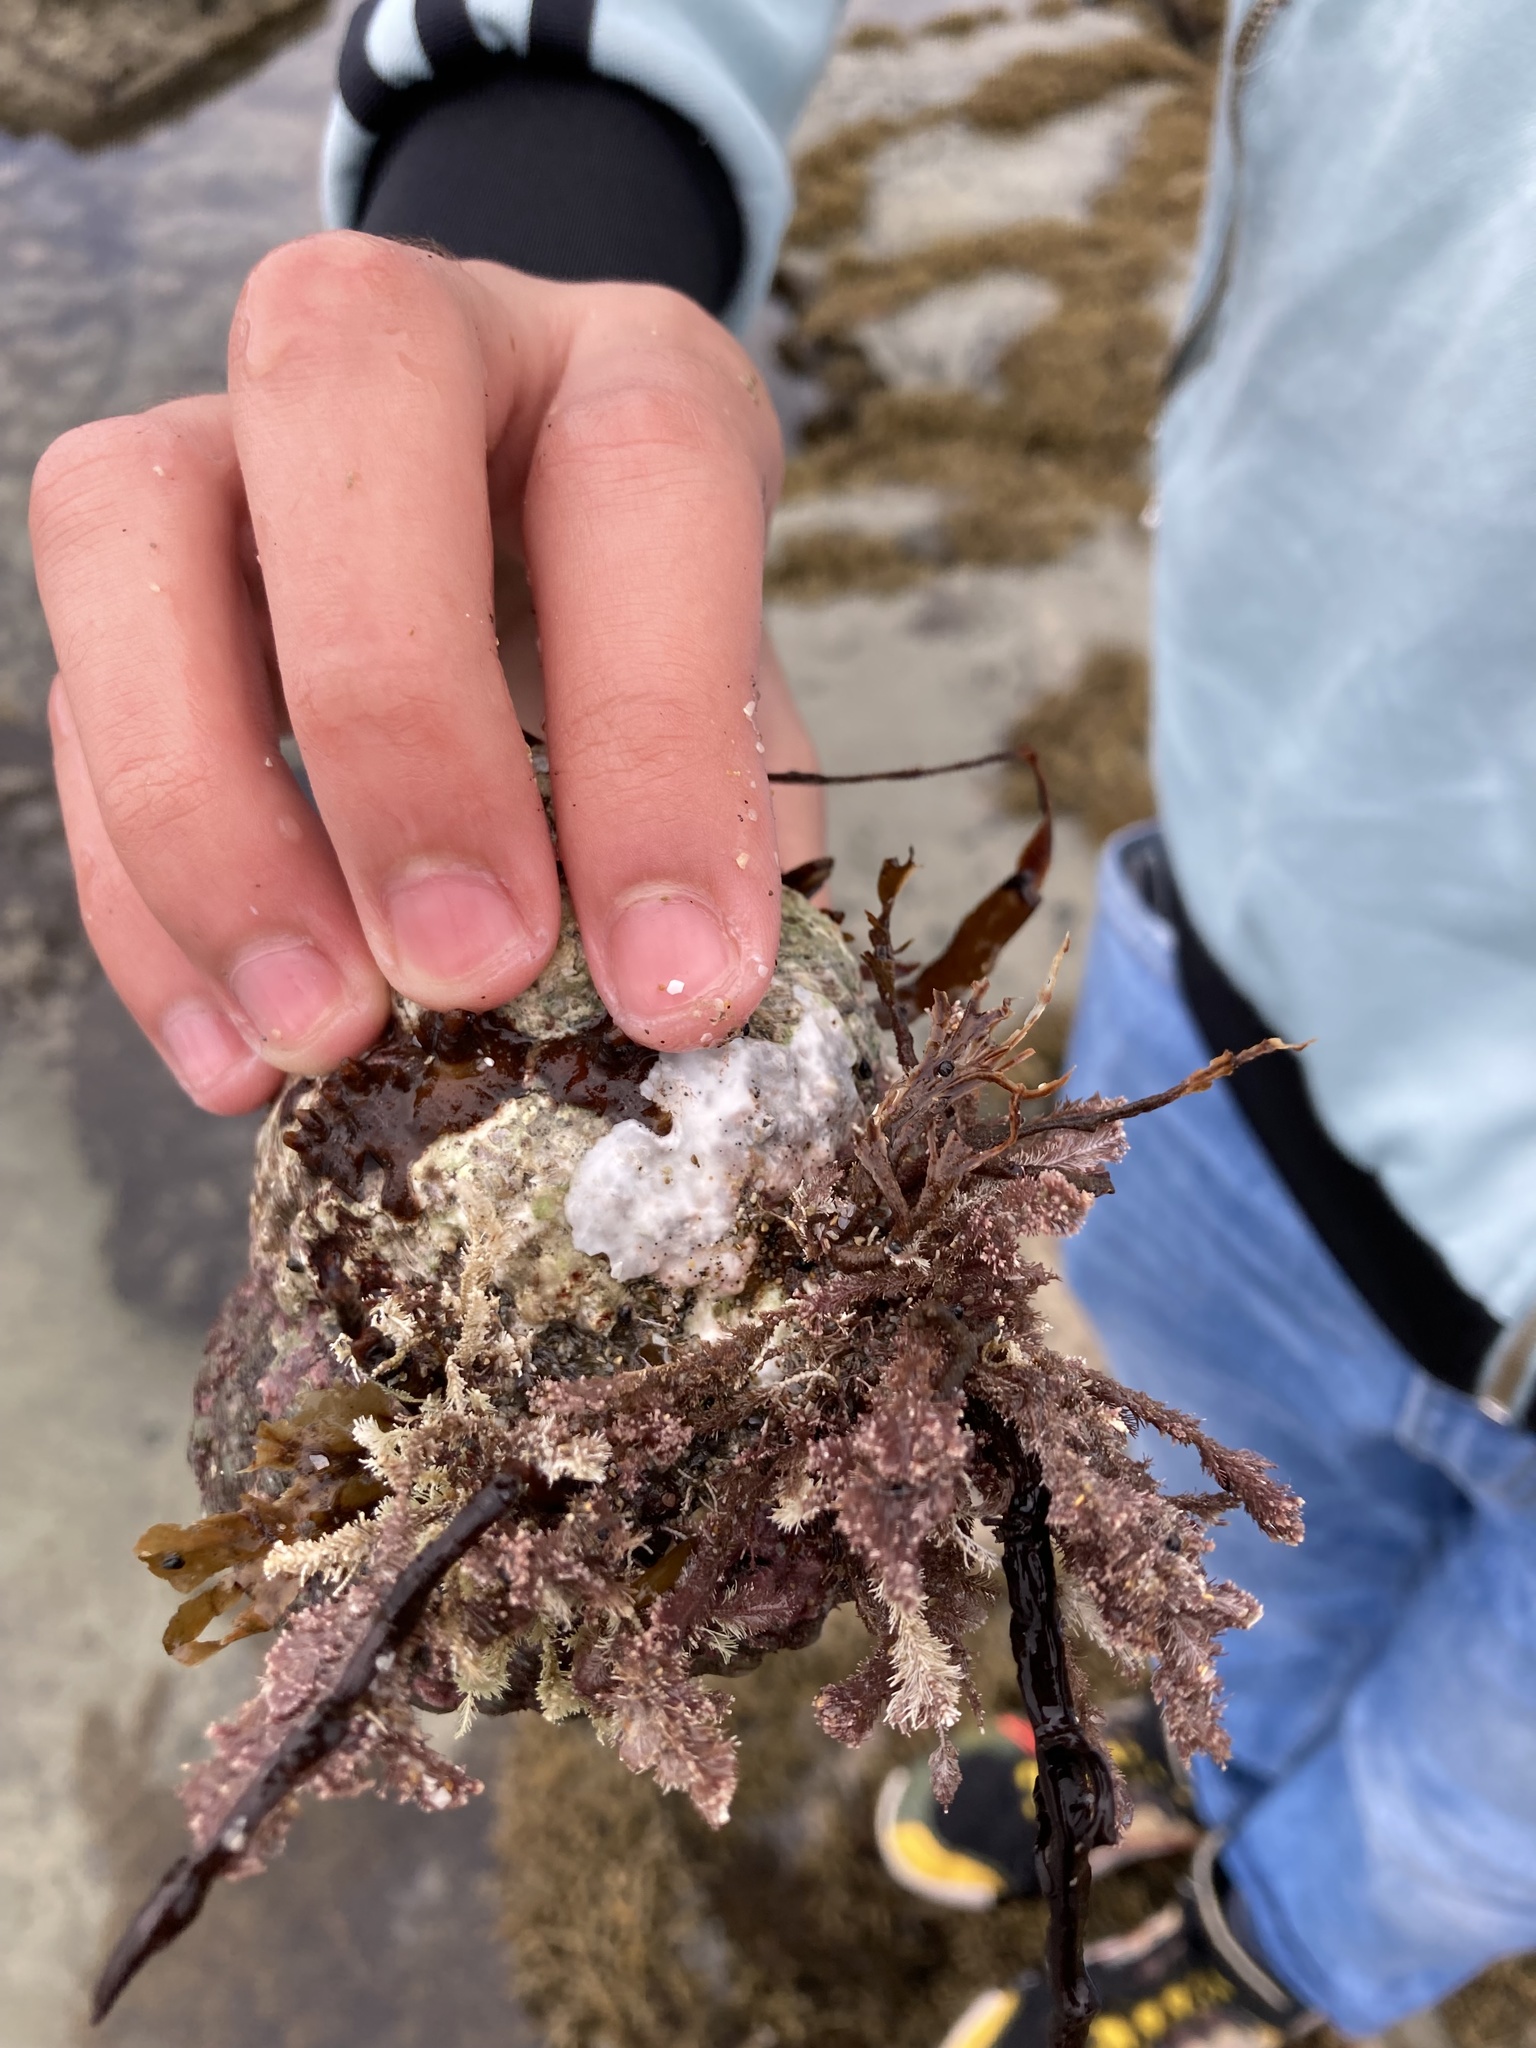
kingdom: Animalia
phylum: Mollusca
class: Gastropoda
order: Trochida
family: Turbinidae
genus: Cookia
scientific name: Cookia sulcata
